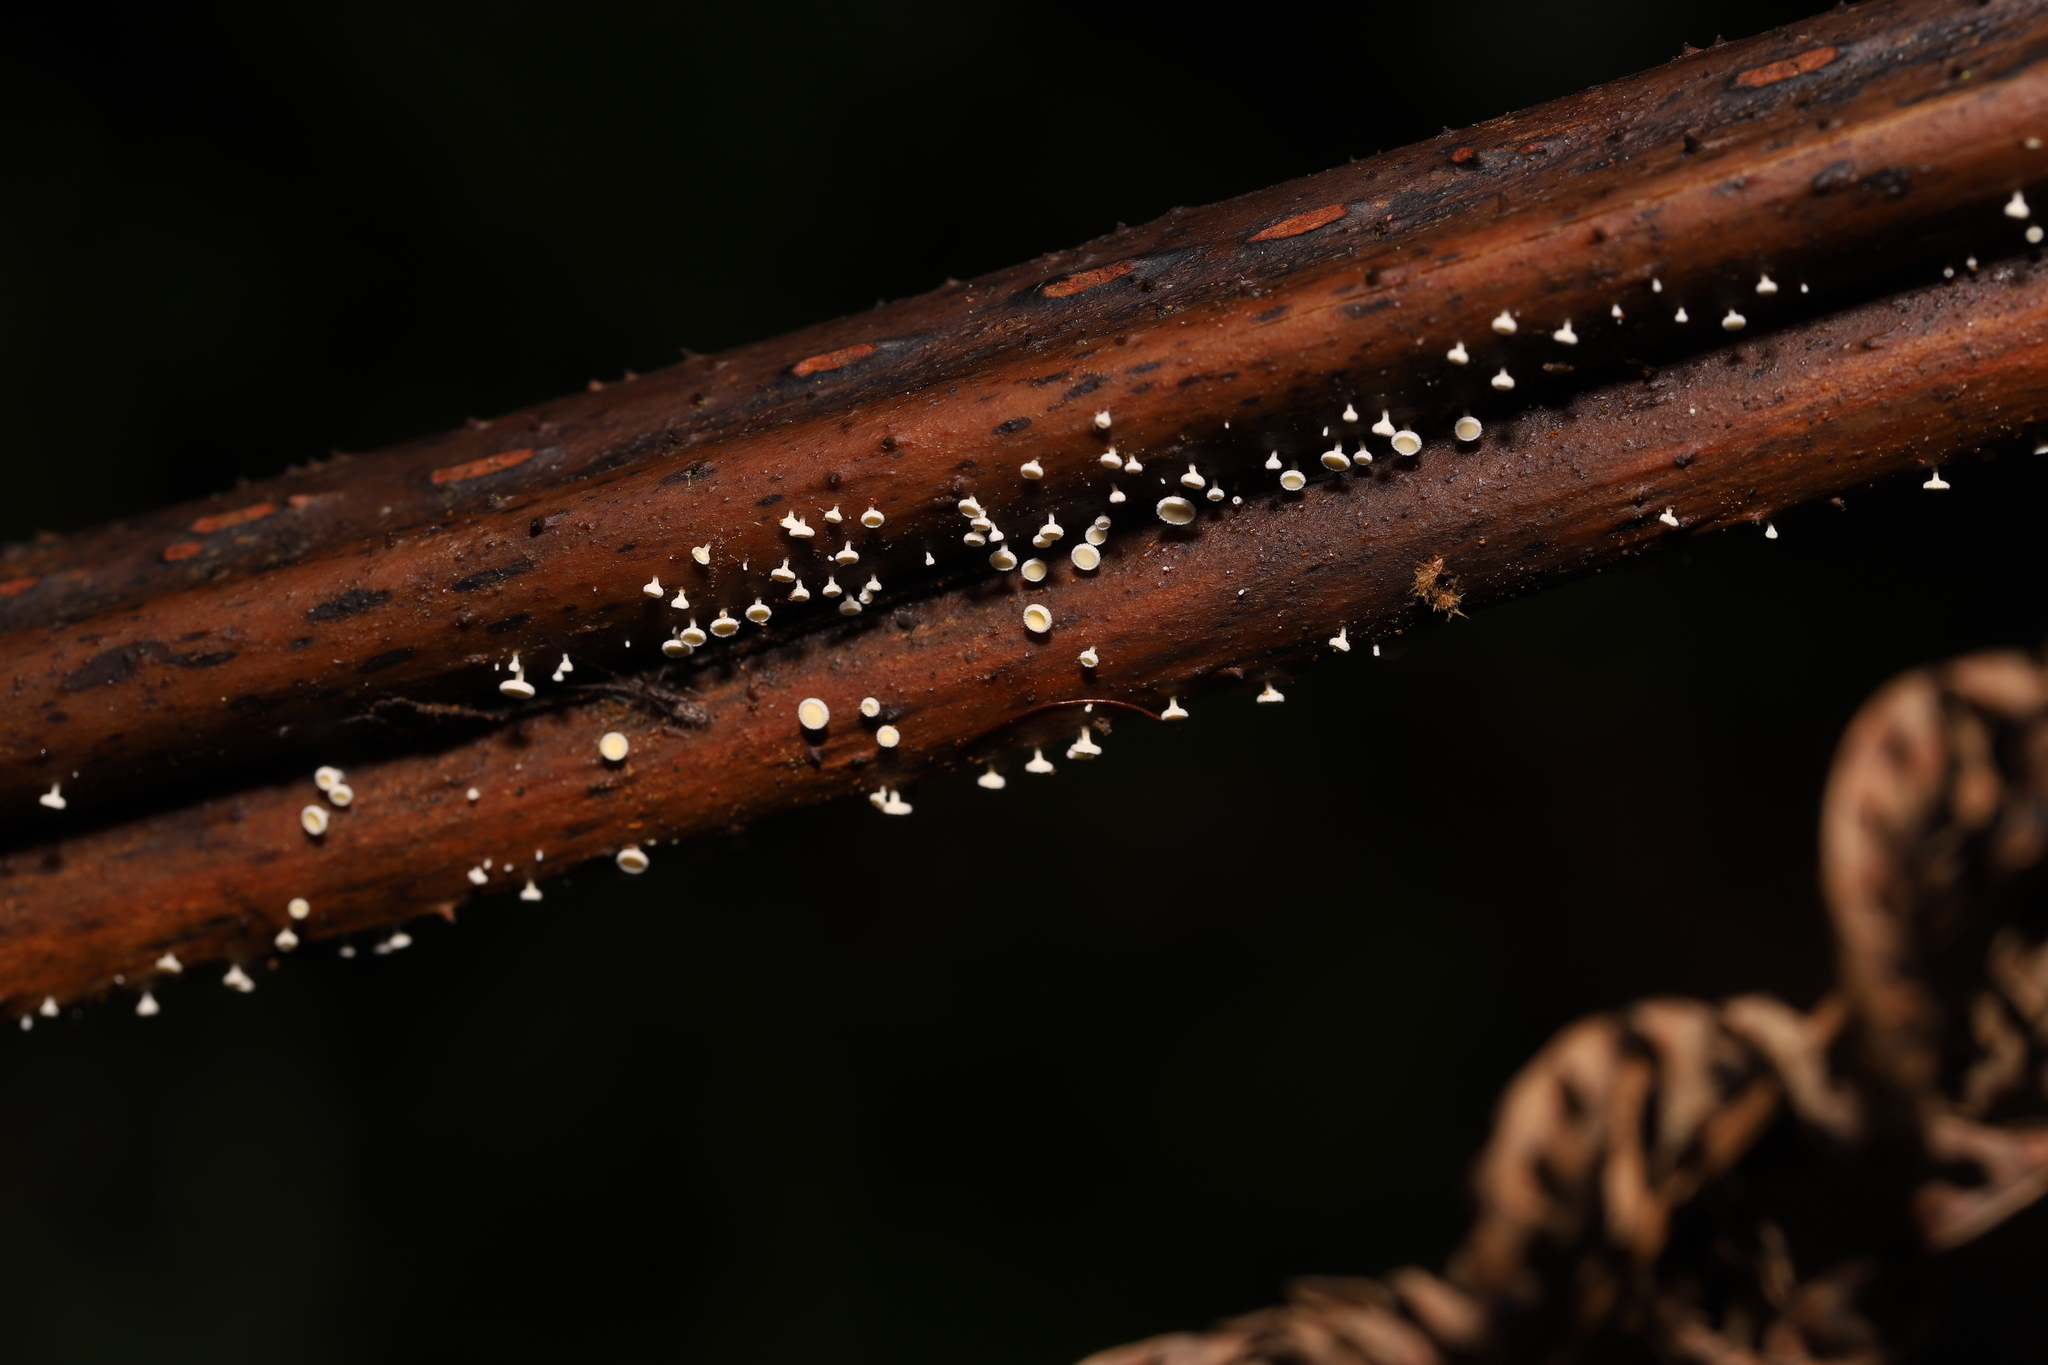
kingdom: Fungi
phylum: Ascomycota
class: Leotiomycetes
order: Helotiales
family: Lachnaceae
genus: Lachnum
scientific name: Lachnum varians
